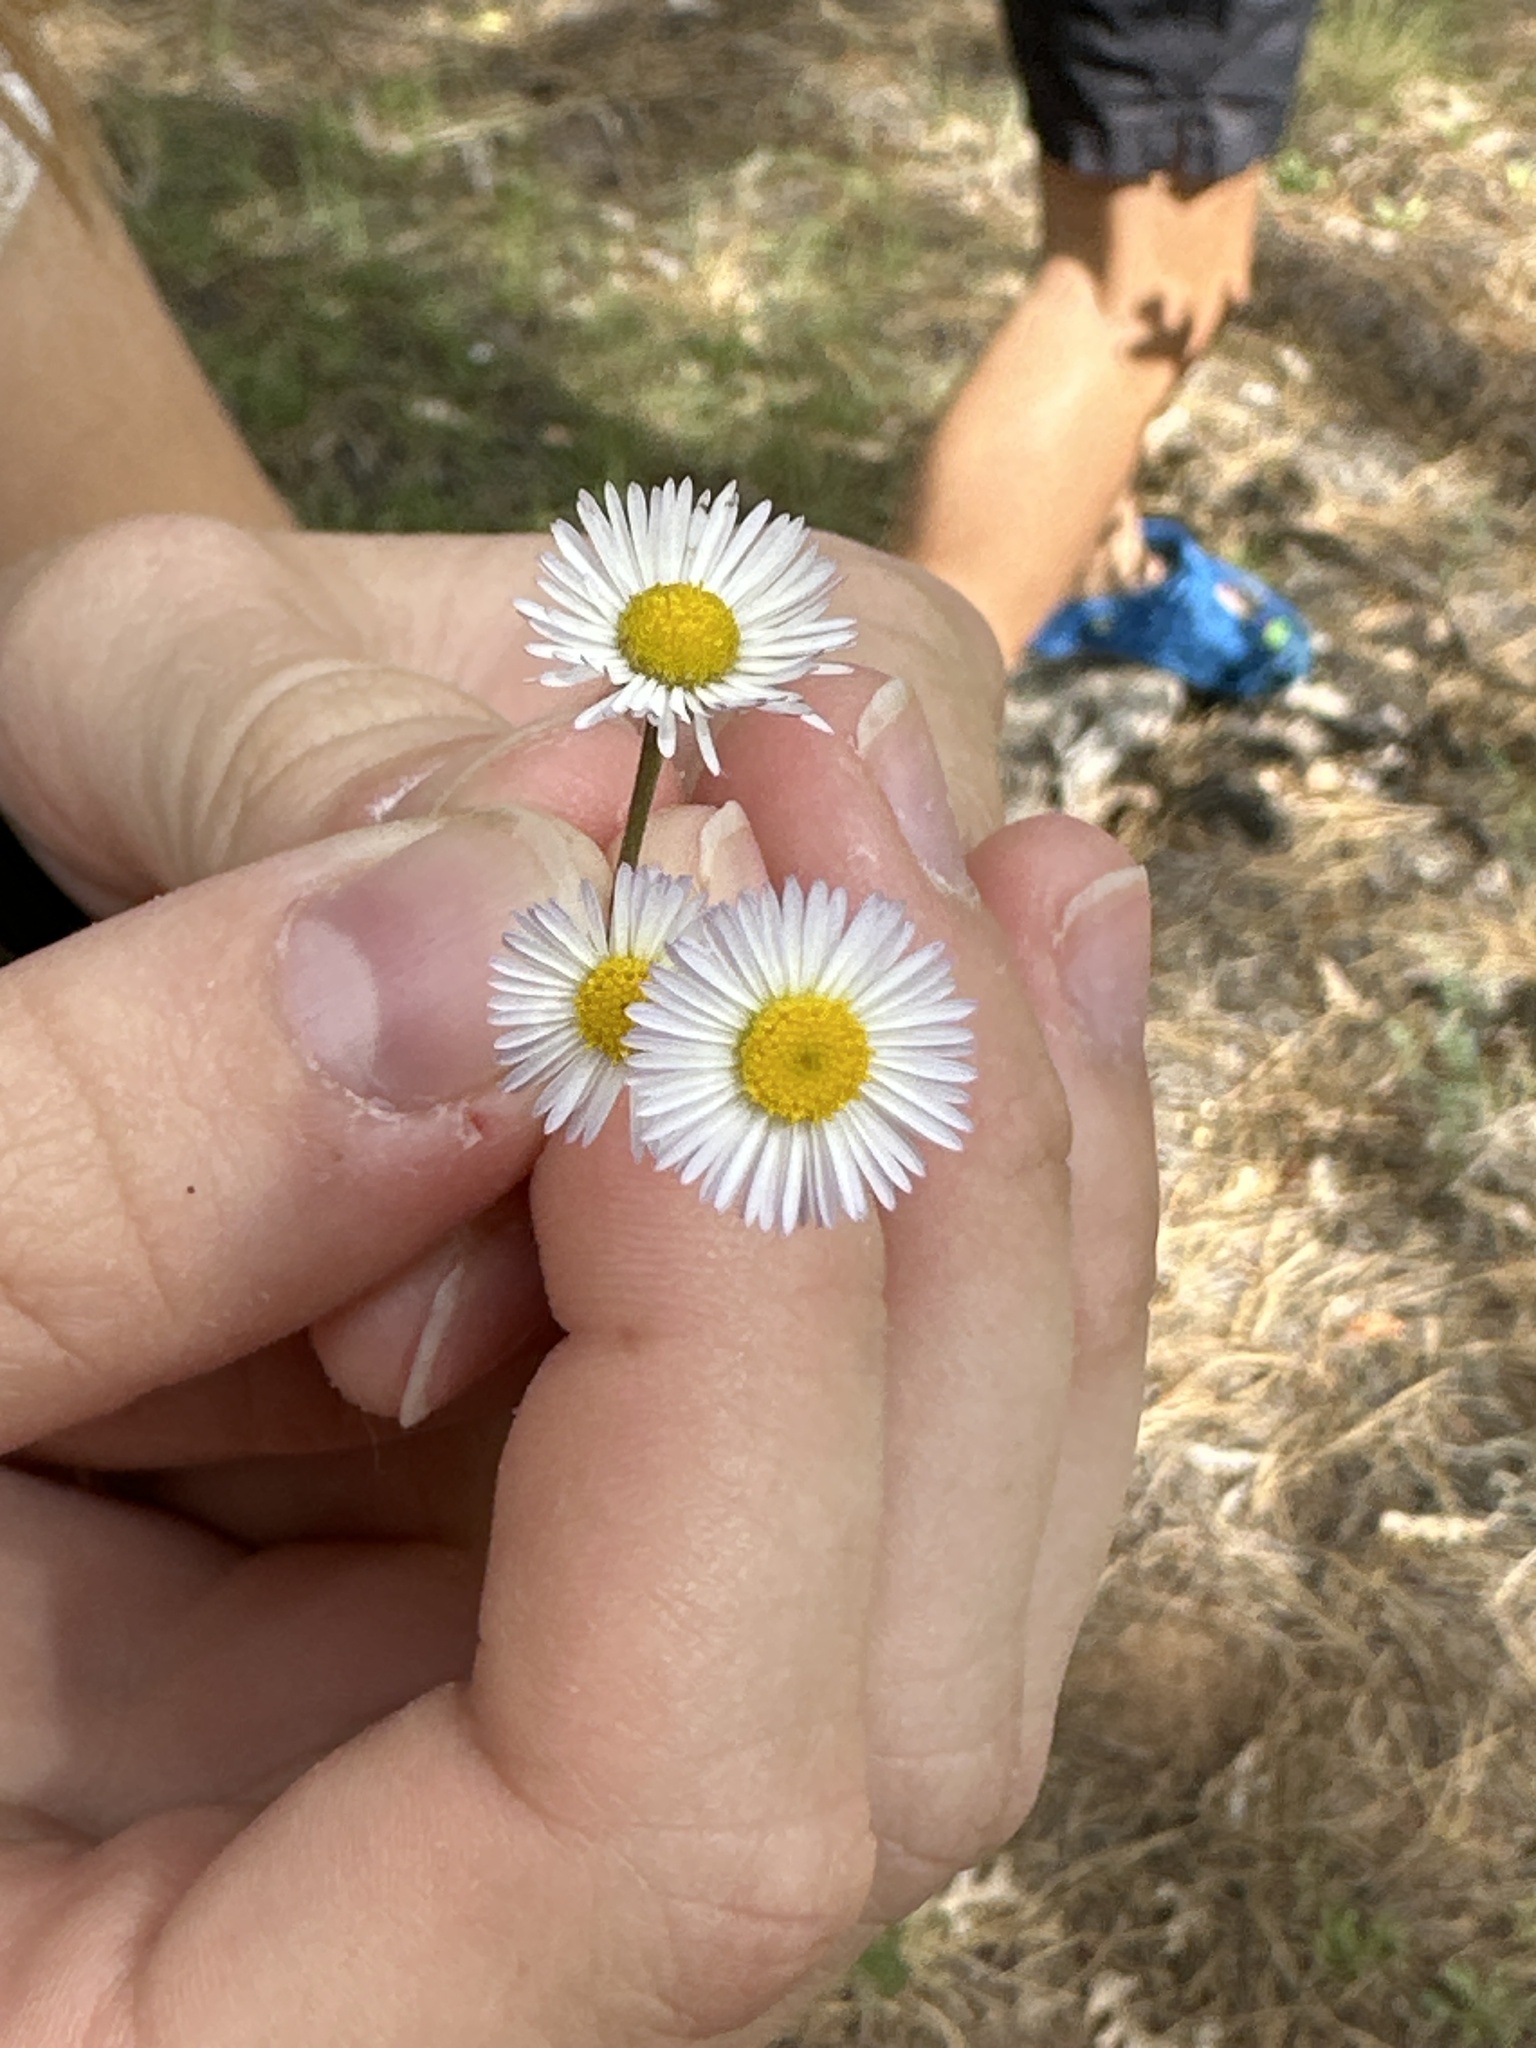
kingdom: Plantae
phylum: Tracheophyta
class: Magnoliopsida
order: Asterales
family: Asteraceae
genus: Erigeron
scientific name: Erigeron divergens
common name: Diffuse fleabane
